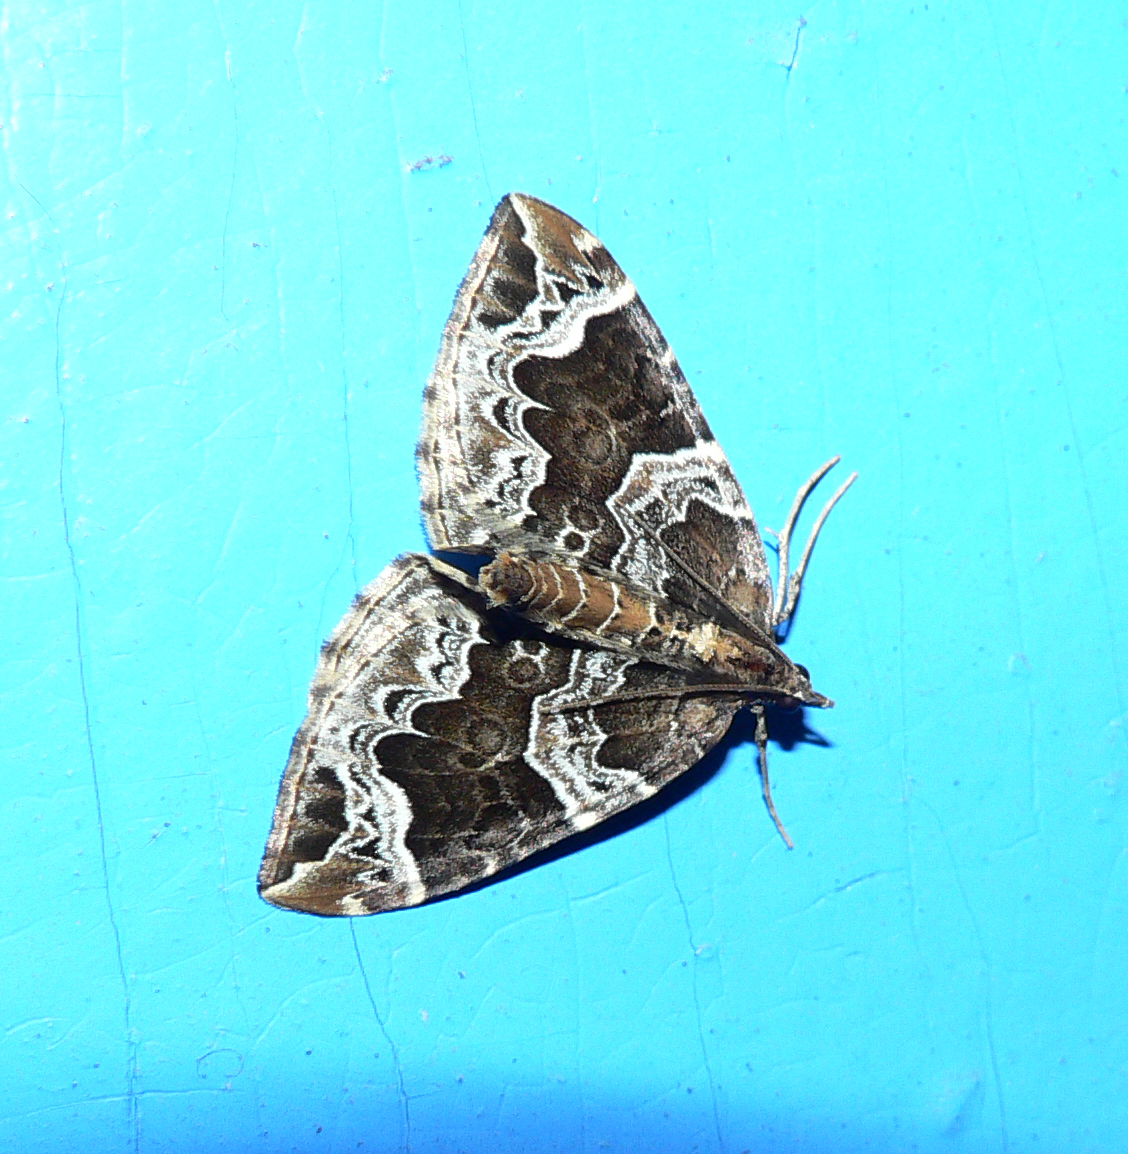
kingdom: Animalia
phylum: Arthropoda
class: Insecta
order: Lepidoptera
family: Geometridae
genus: Eulithis
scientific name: Eulithis prunata
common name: Phoenix
